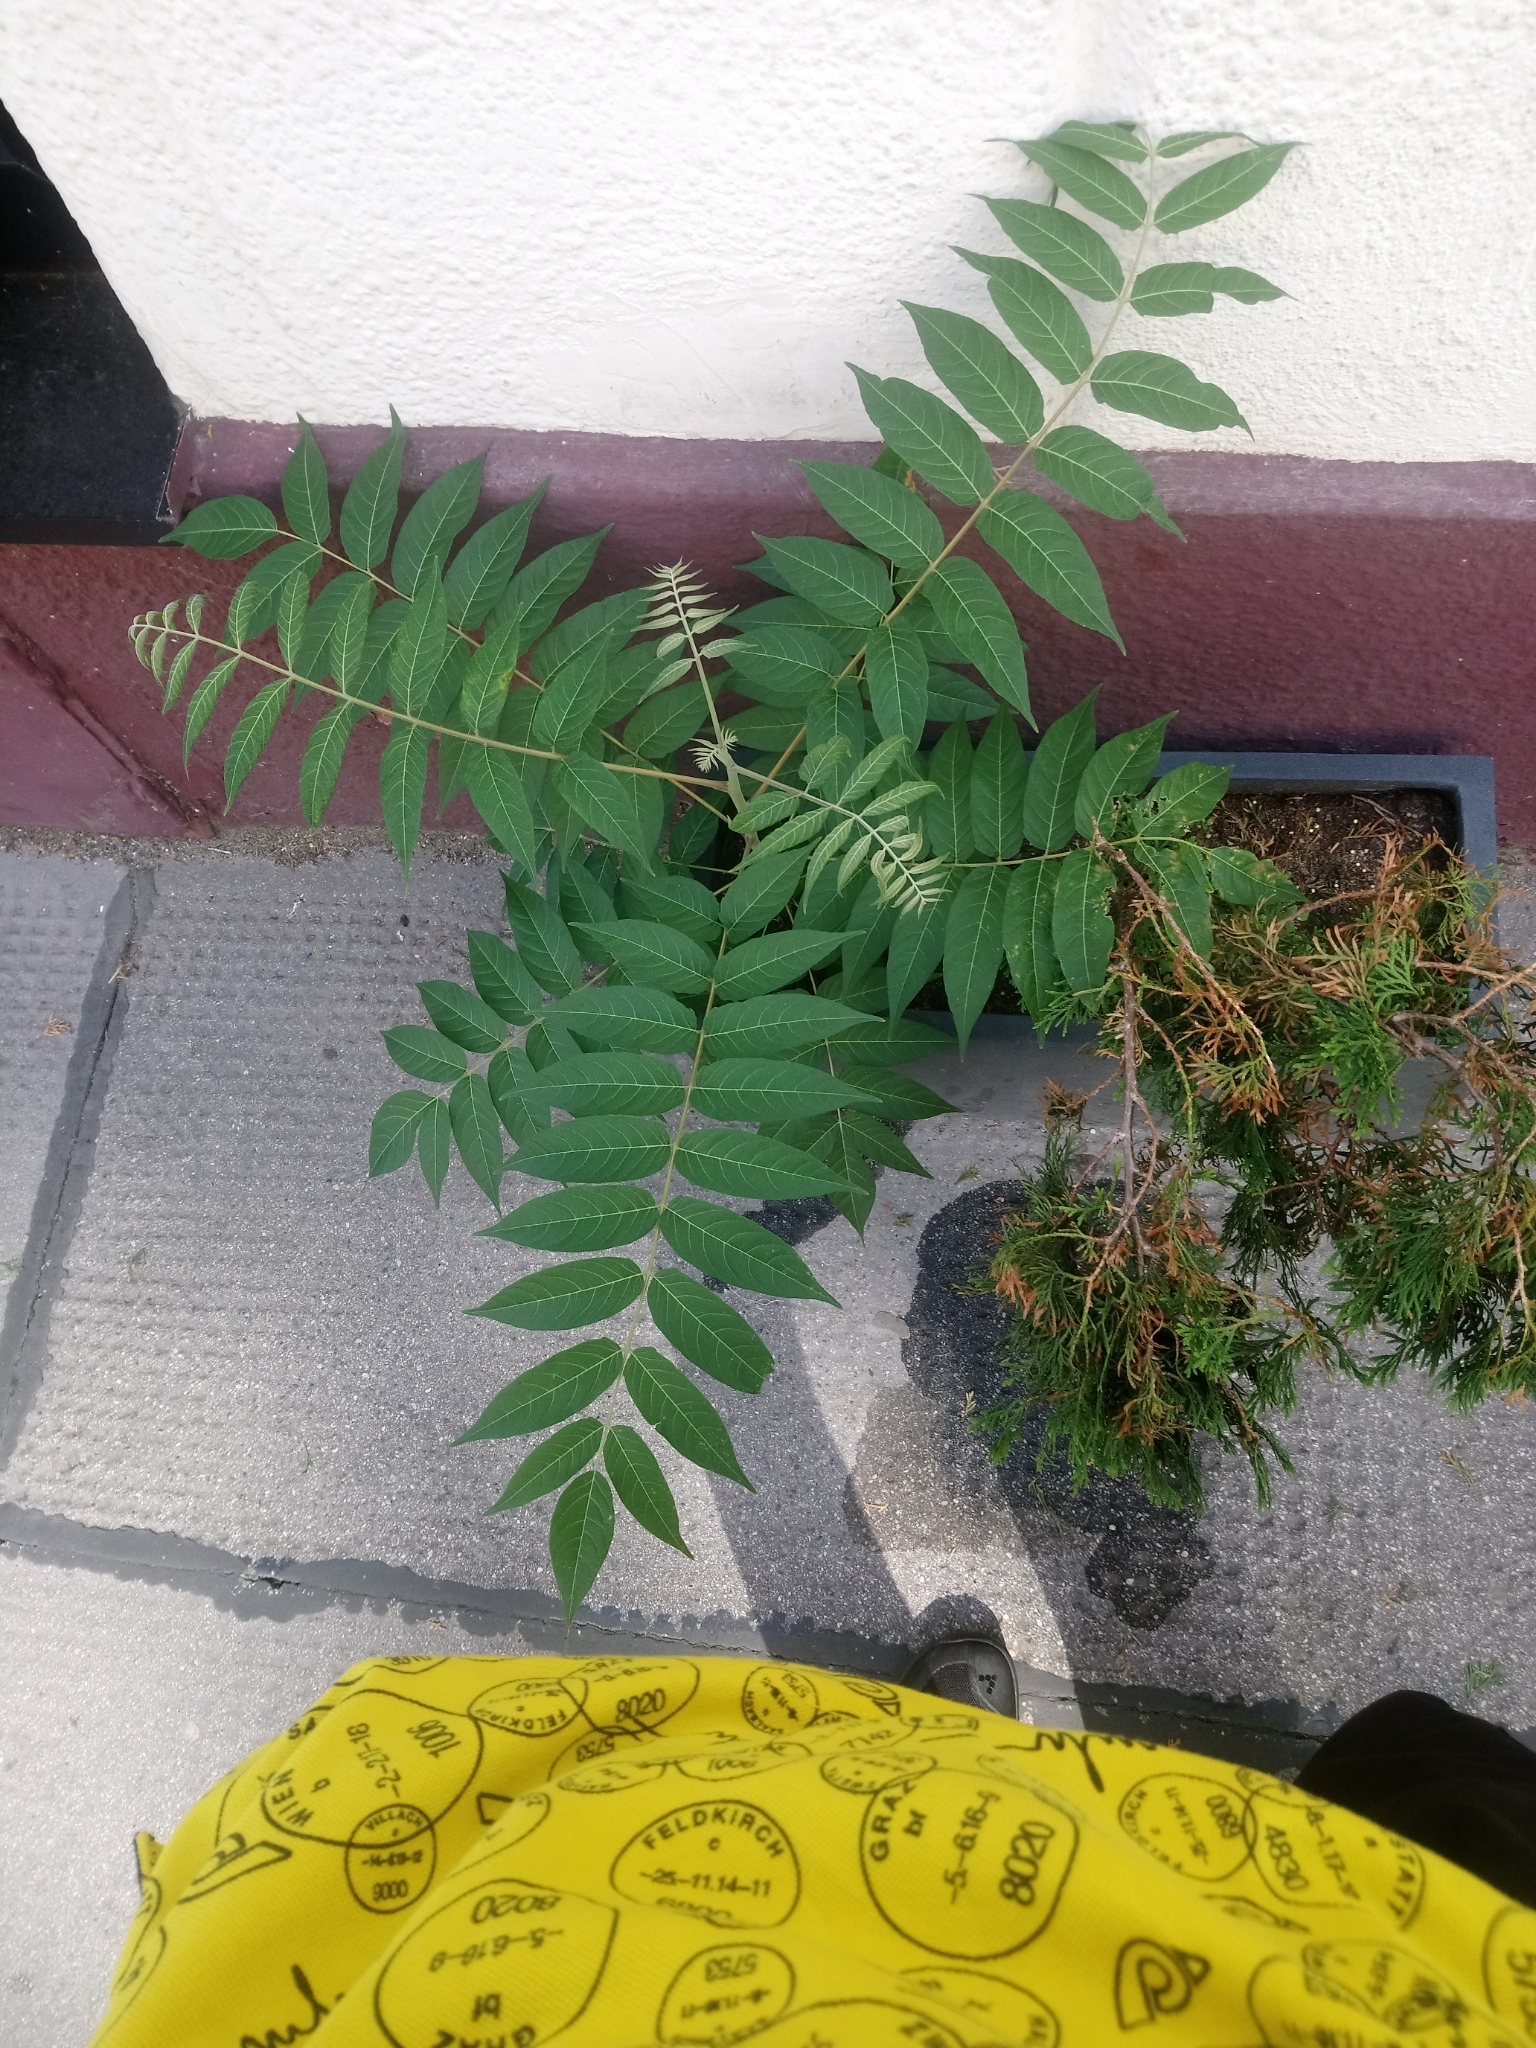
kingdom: Plantae
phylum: Tracheophyta
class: Magnoliopsida
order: Sapindales
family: Simaroubaceae
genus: Ailanthus
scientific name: Ailanthus altissima
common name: Tree-of-heaven
